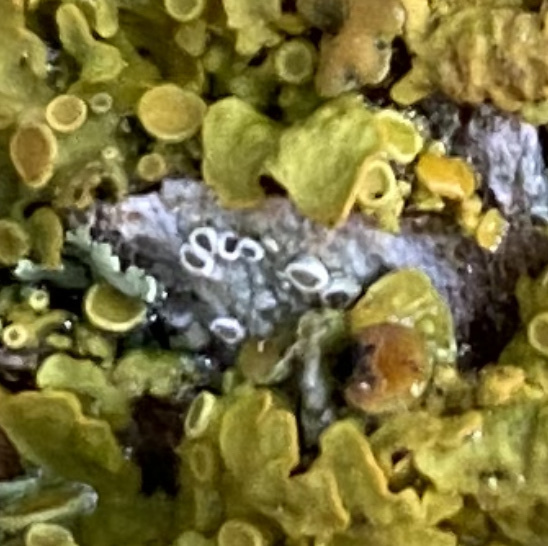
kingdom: Fungi
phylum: Ascomycota
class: Lecanoromycetes
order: Lecanorales
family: Lecanoraceae
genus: Lecanora
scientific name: Lecanora pulicaris
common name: Common rim lichen
